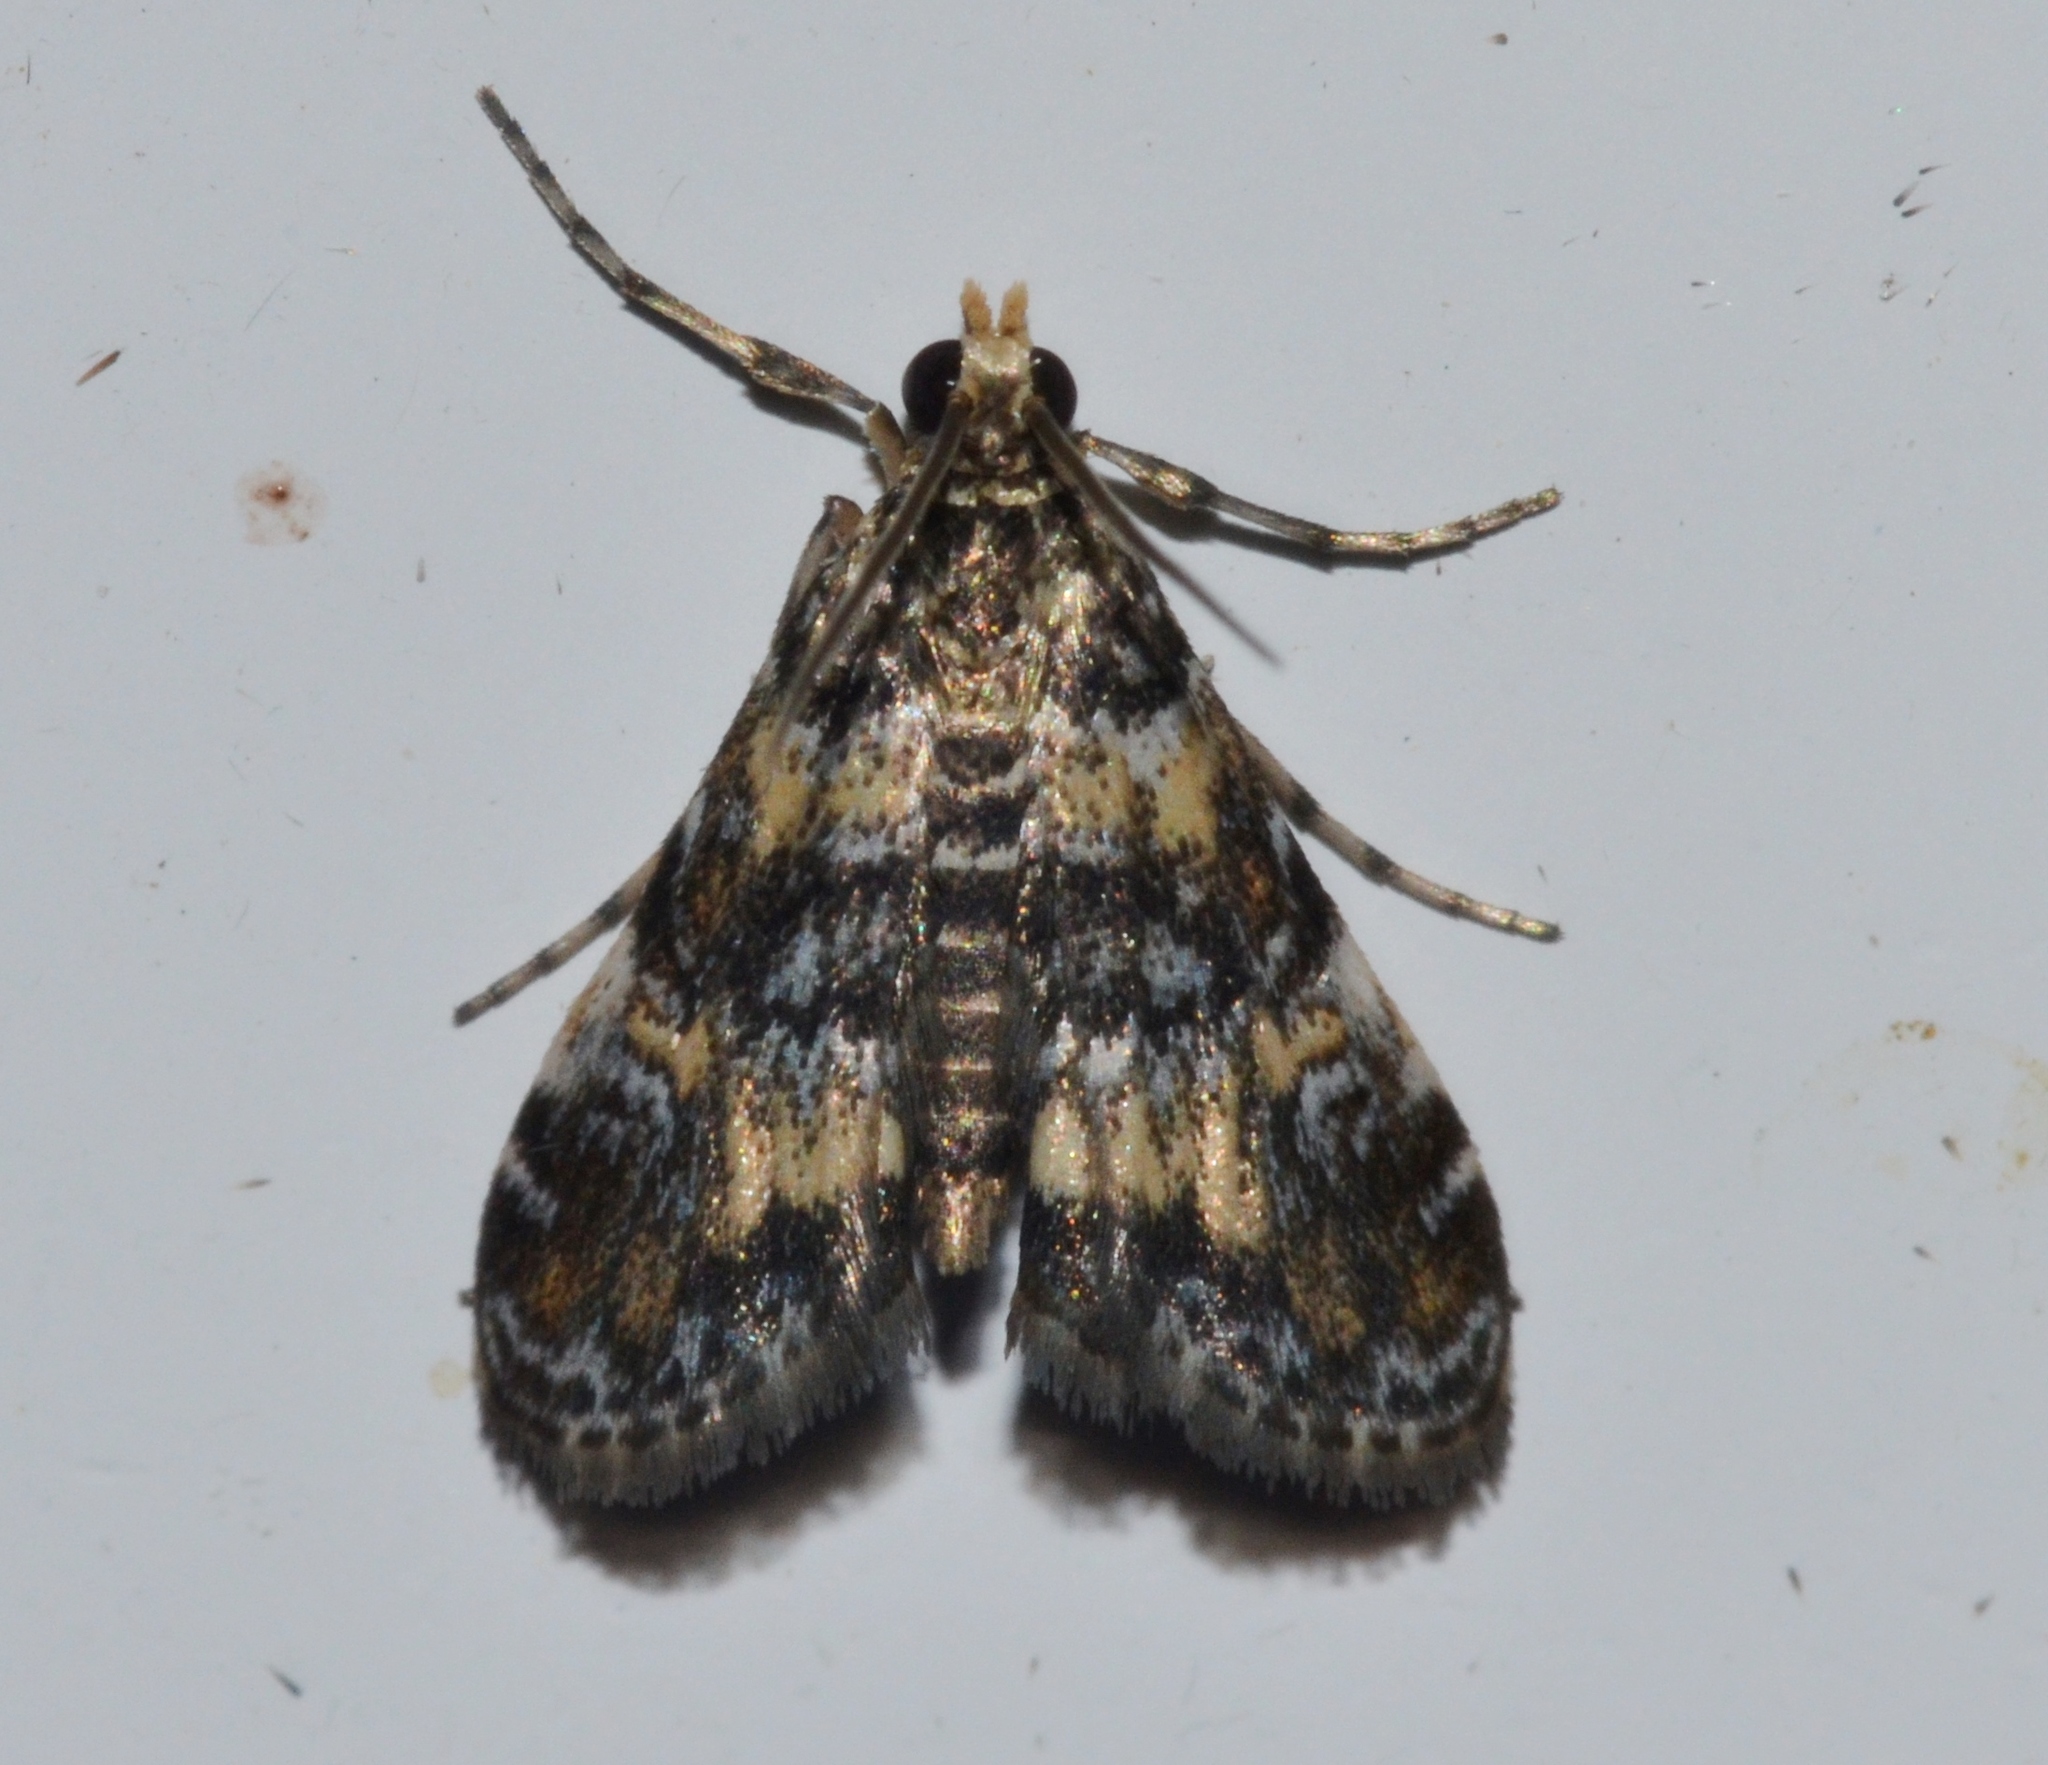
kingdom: Animalia
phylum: Arthropoda
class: Insecta
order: Lepidoptera
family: Crambidae
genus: Elophila
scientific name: Elophila obliteralis
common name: Waterlily leafcutter moth
